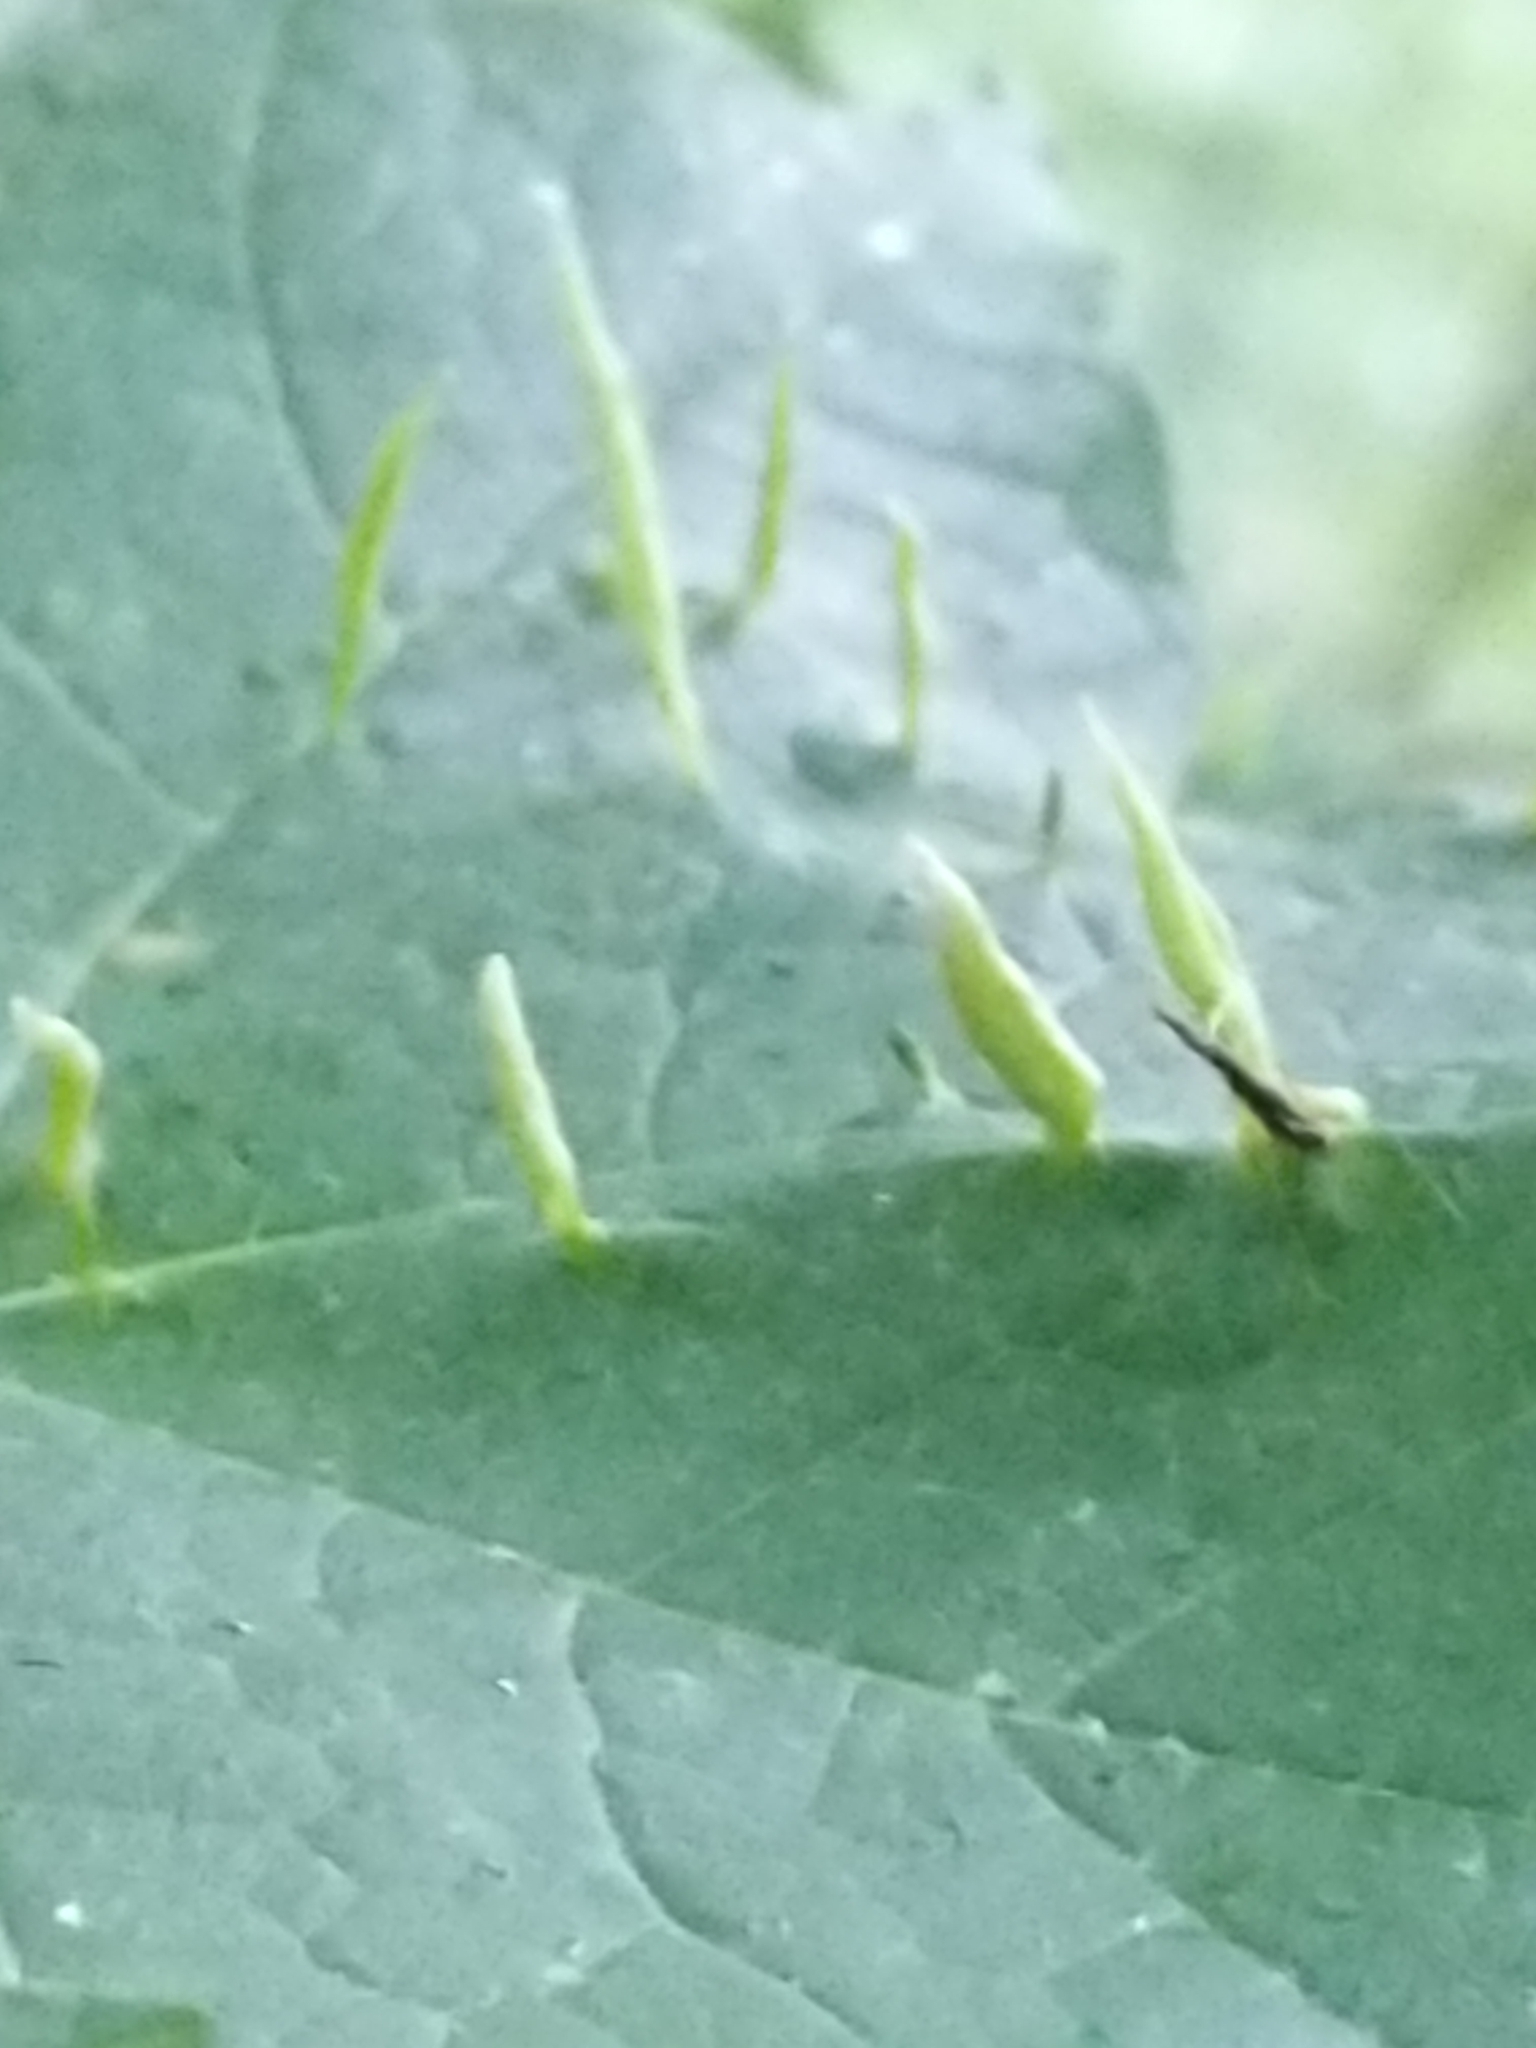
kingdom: Animalia
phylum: Arthropoda
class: Arachnida
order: Trombidiformes
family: Eriophyidae
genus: Vasates
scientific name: Vasates aceriscrumena
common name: Maple spindle gall mite
